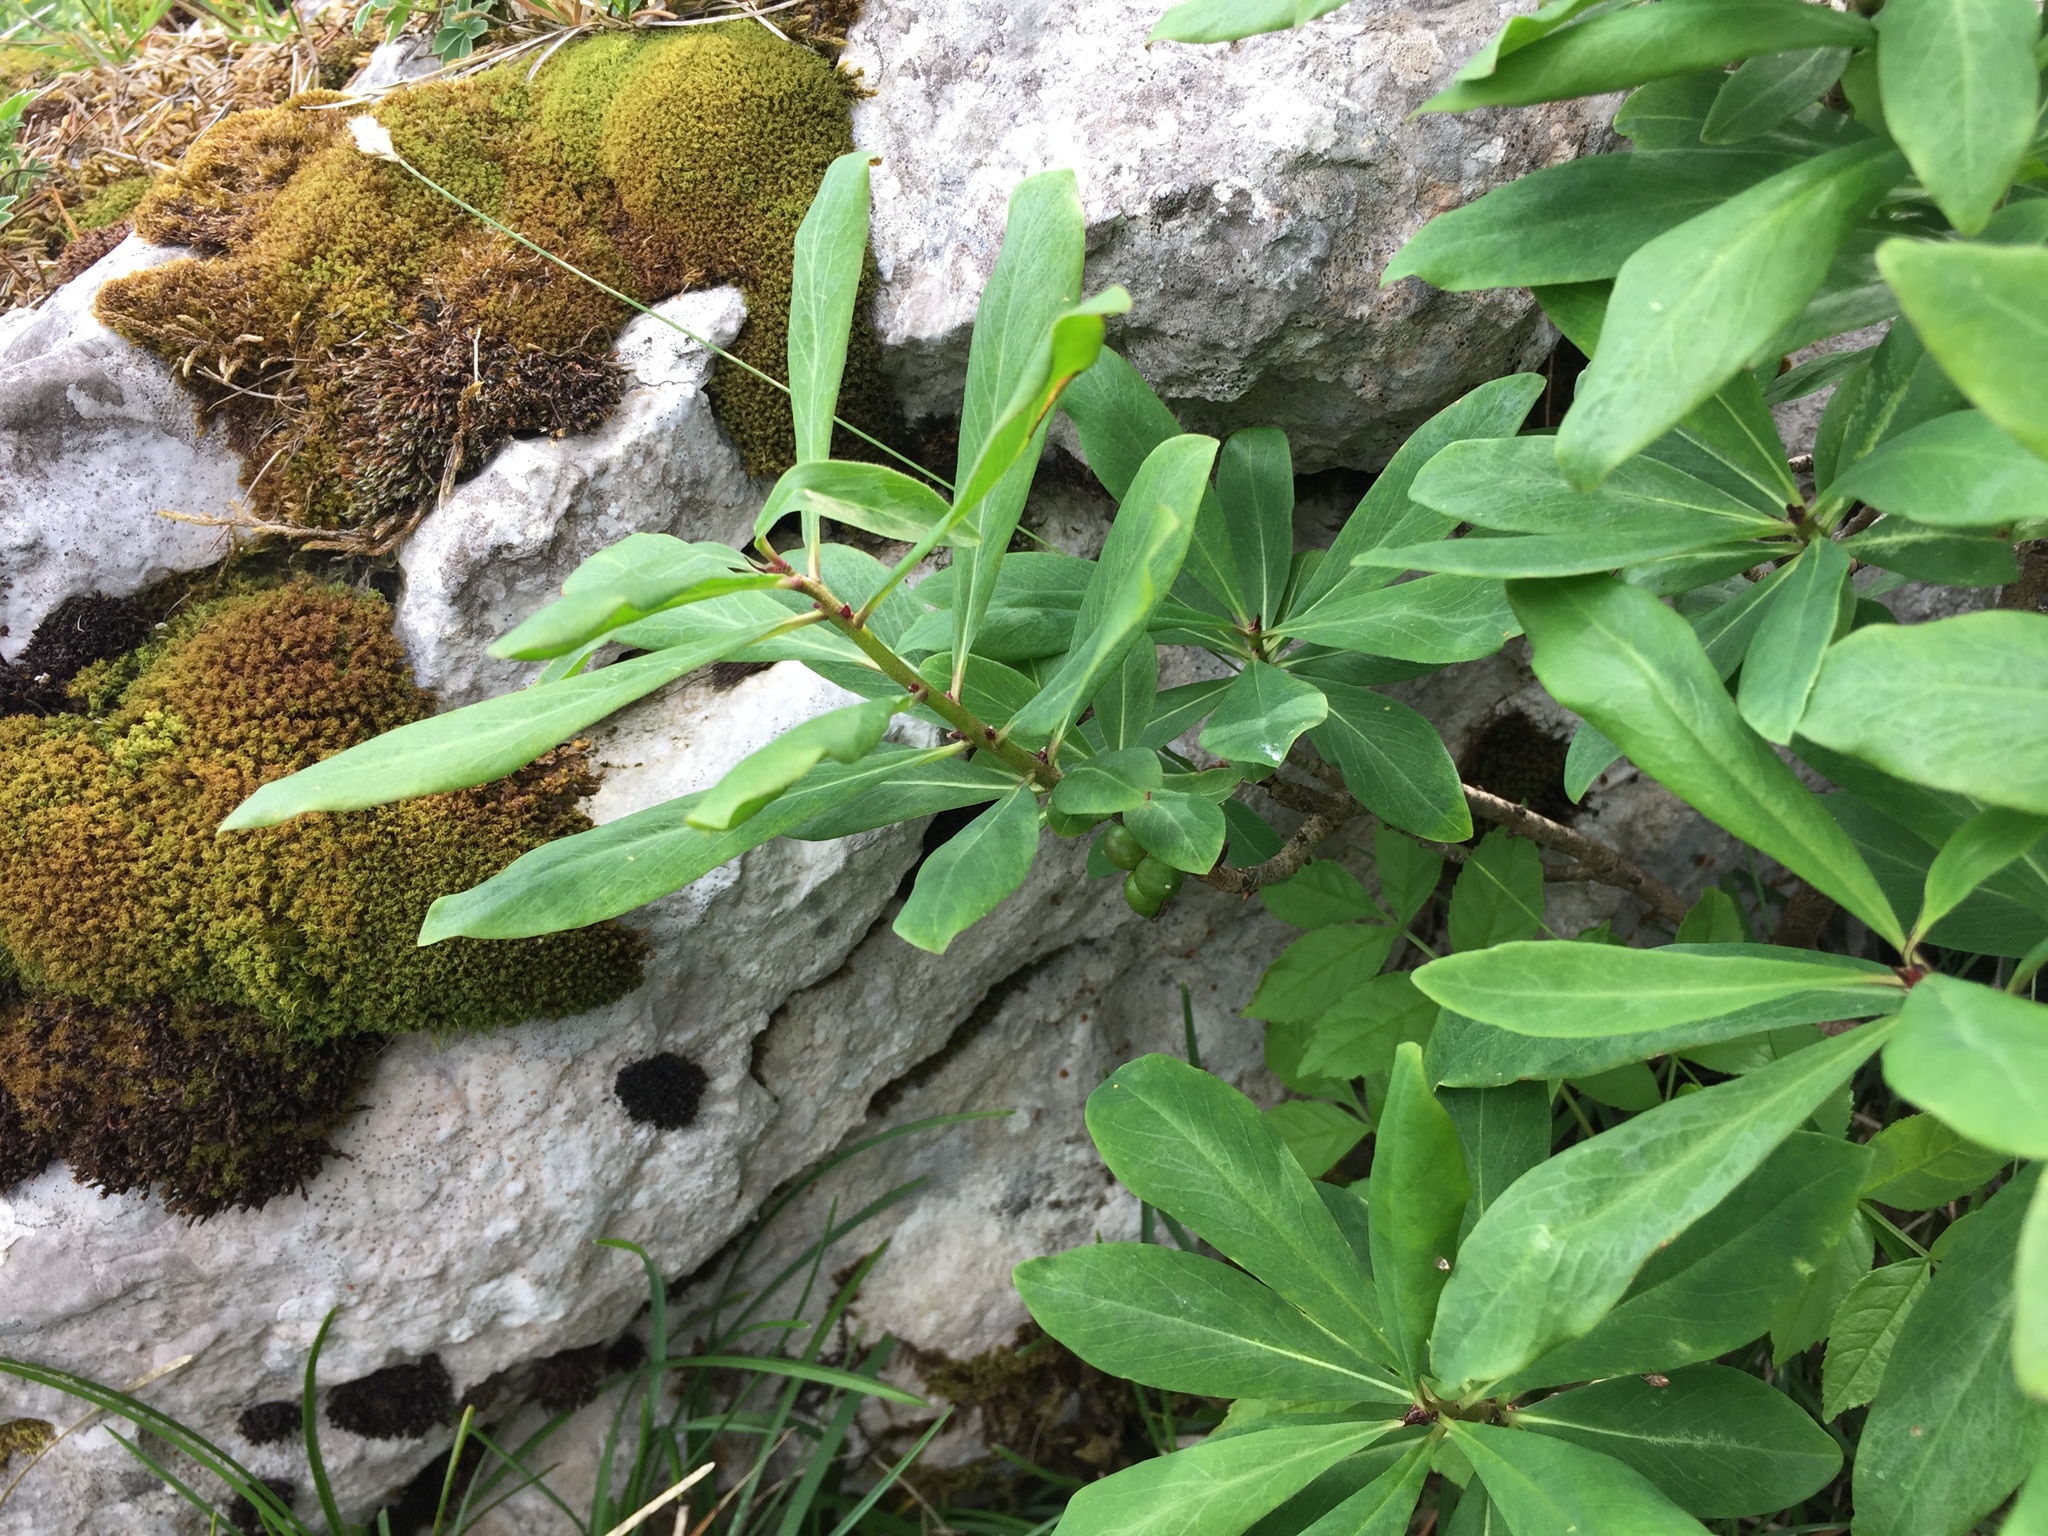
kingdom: Plantae
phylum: Tracheophyta
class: Magnoliopsida
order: Malvales
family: Thymelaeaceae
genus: Daphne
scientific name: Daphne mezereum
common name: Mezereon
